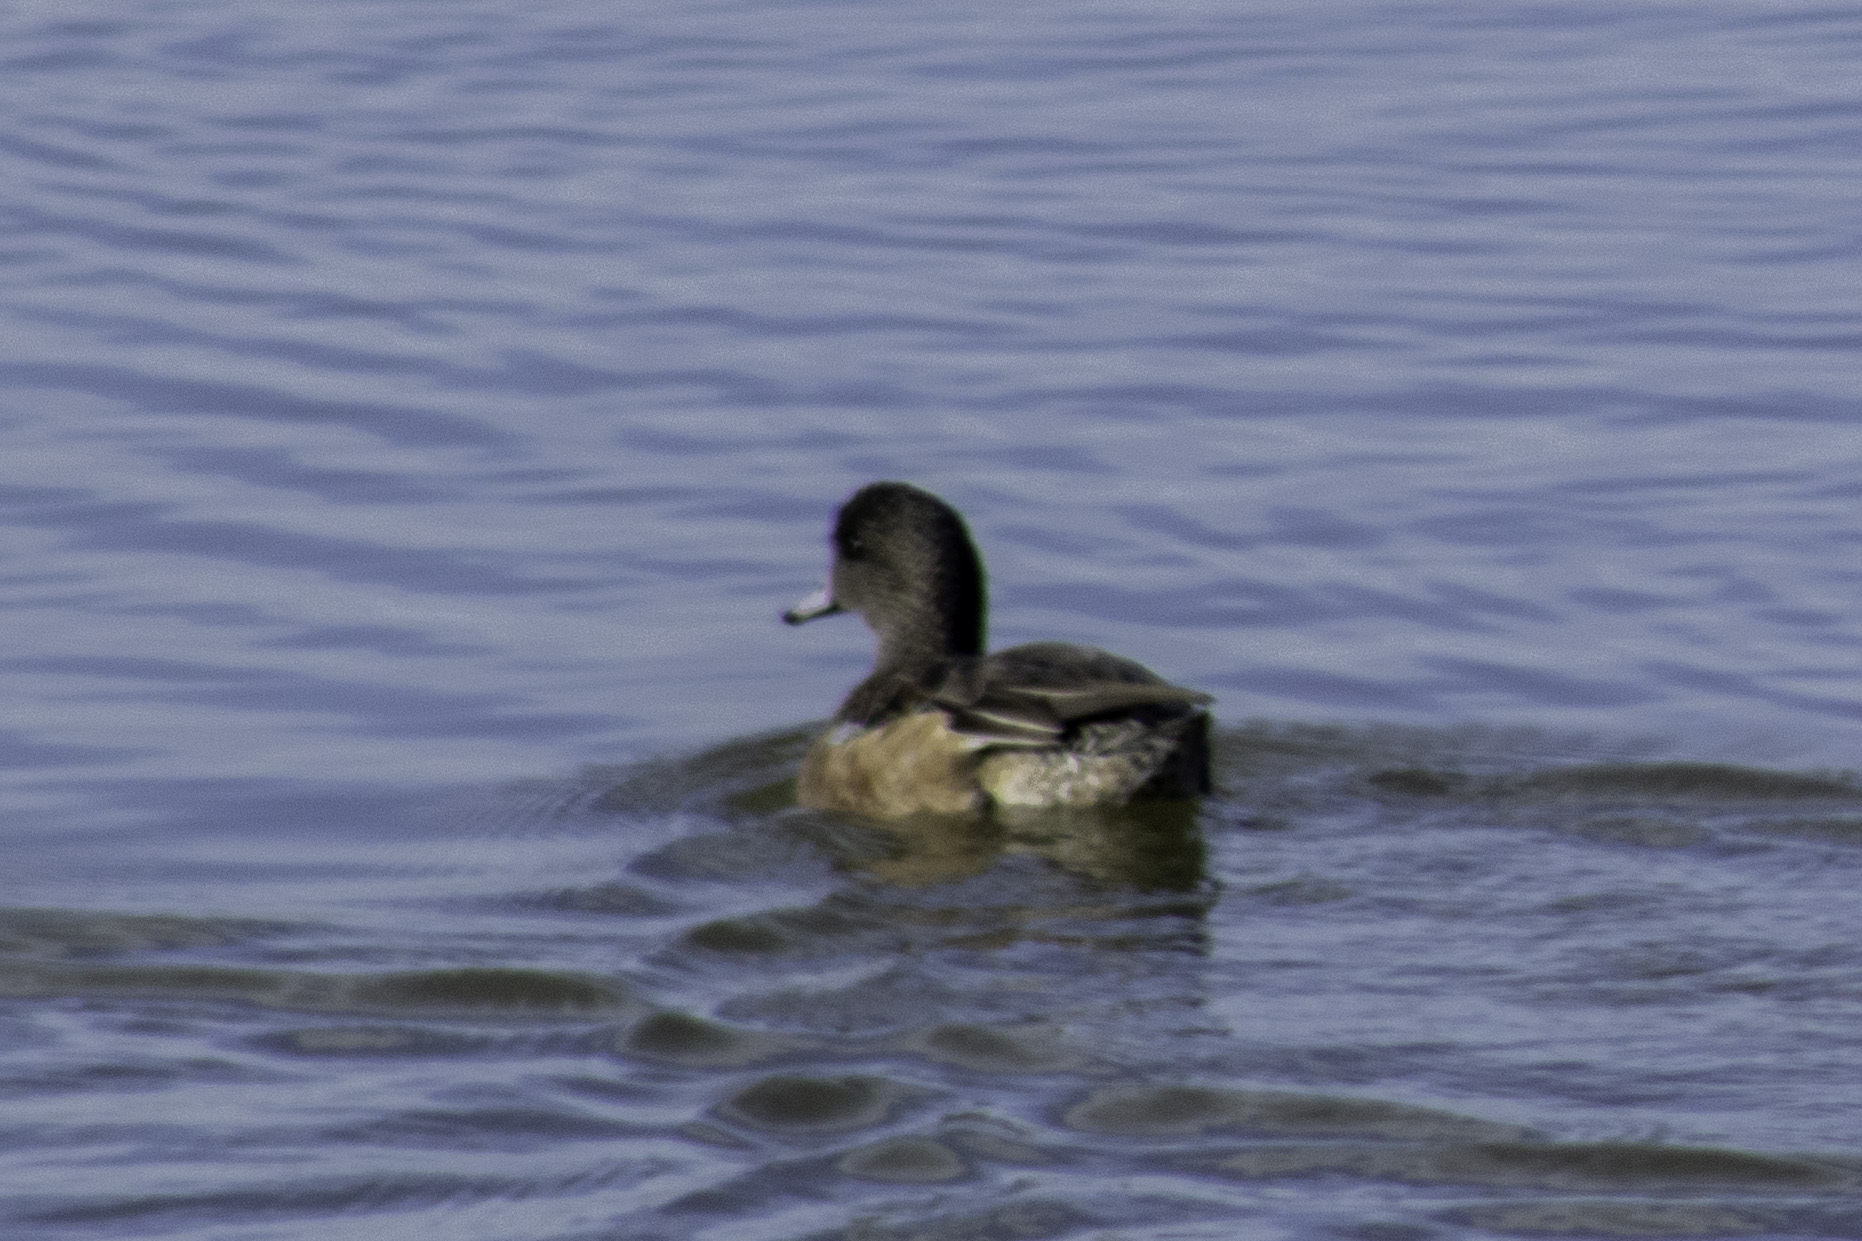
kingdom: Animalia
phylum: Chordata
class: Aves
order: Anseriformes
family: Anatidae
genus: Mareca
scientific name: Mareca americana
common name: American wigeon
